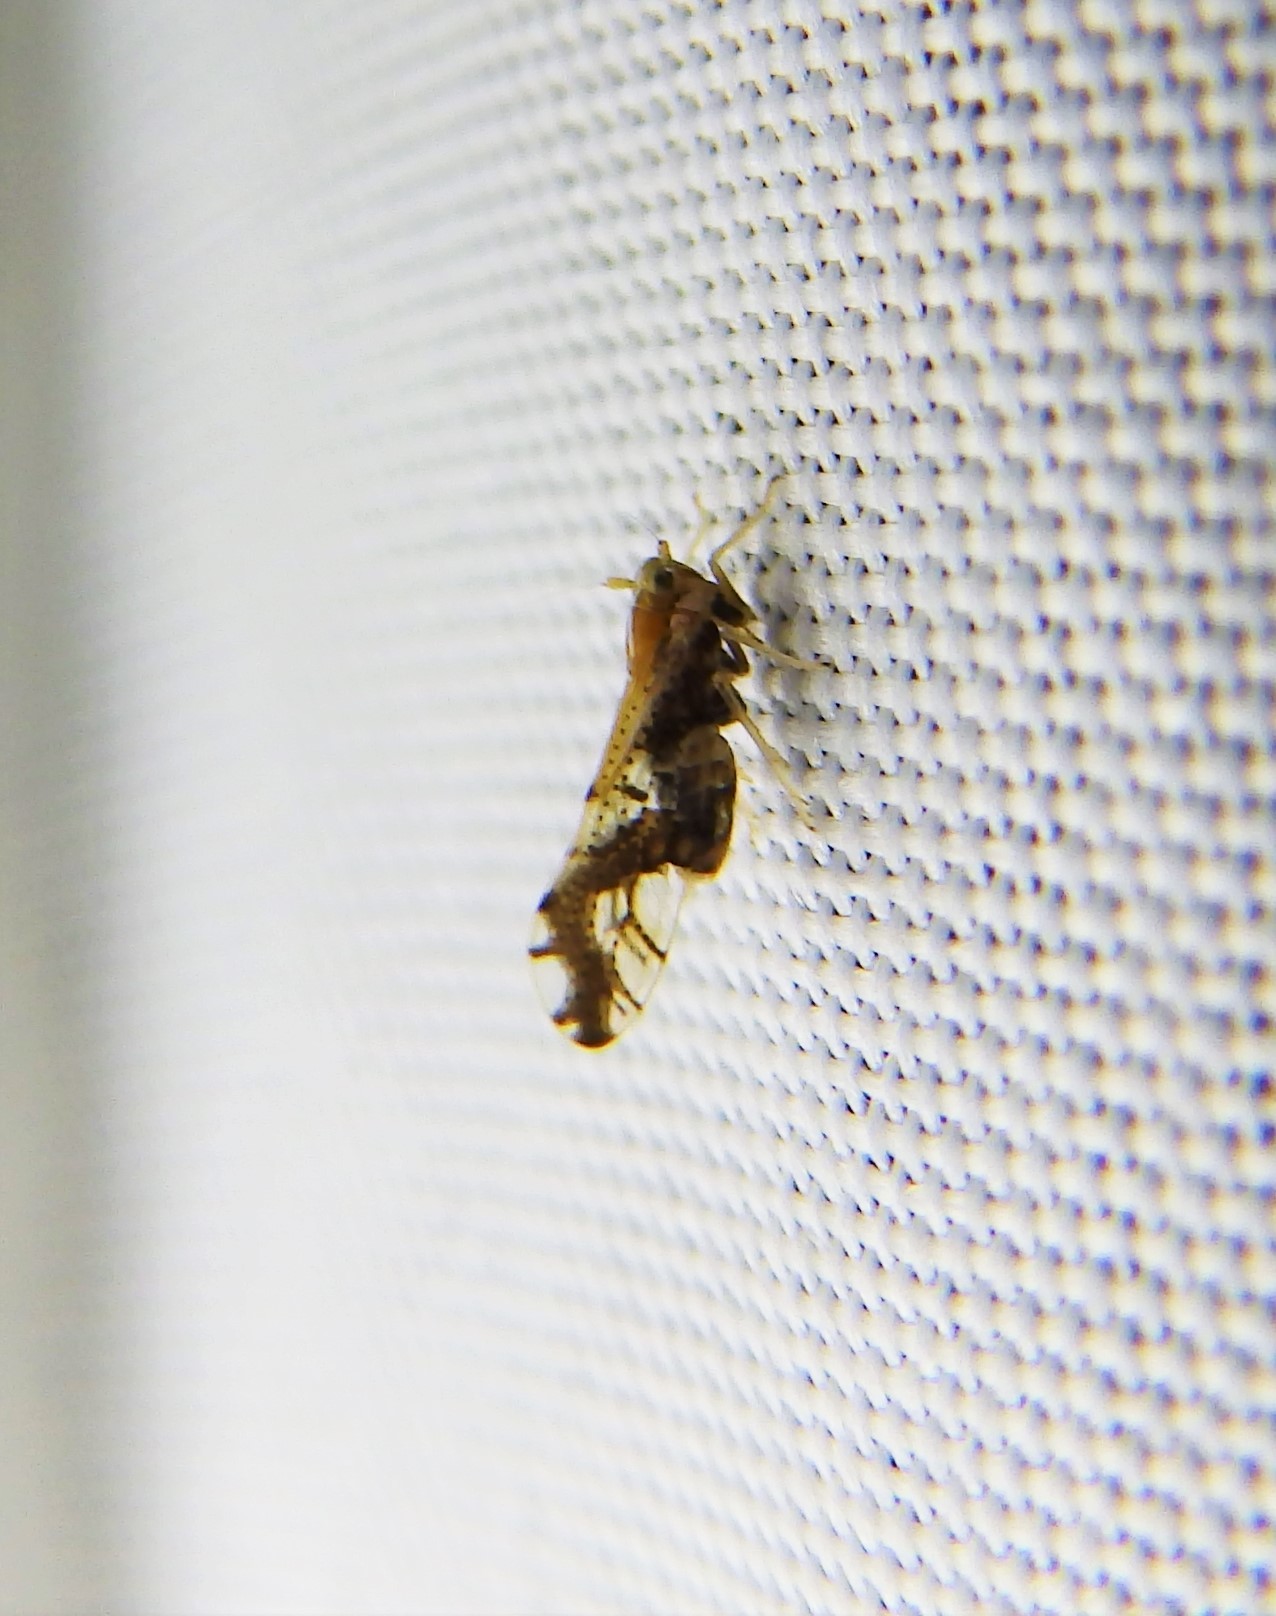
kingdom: Animalia
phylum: Arthropoda
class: Insecta
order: Hemiptera
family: Delphacidae
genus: Liburniella
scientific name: Liburniella ornata
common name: Ornate planthopper
